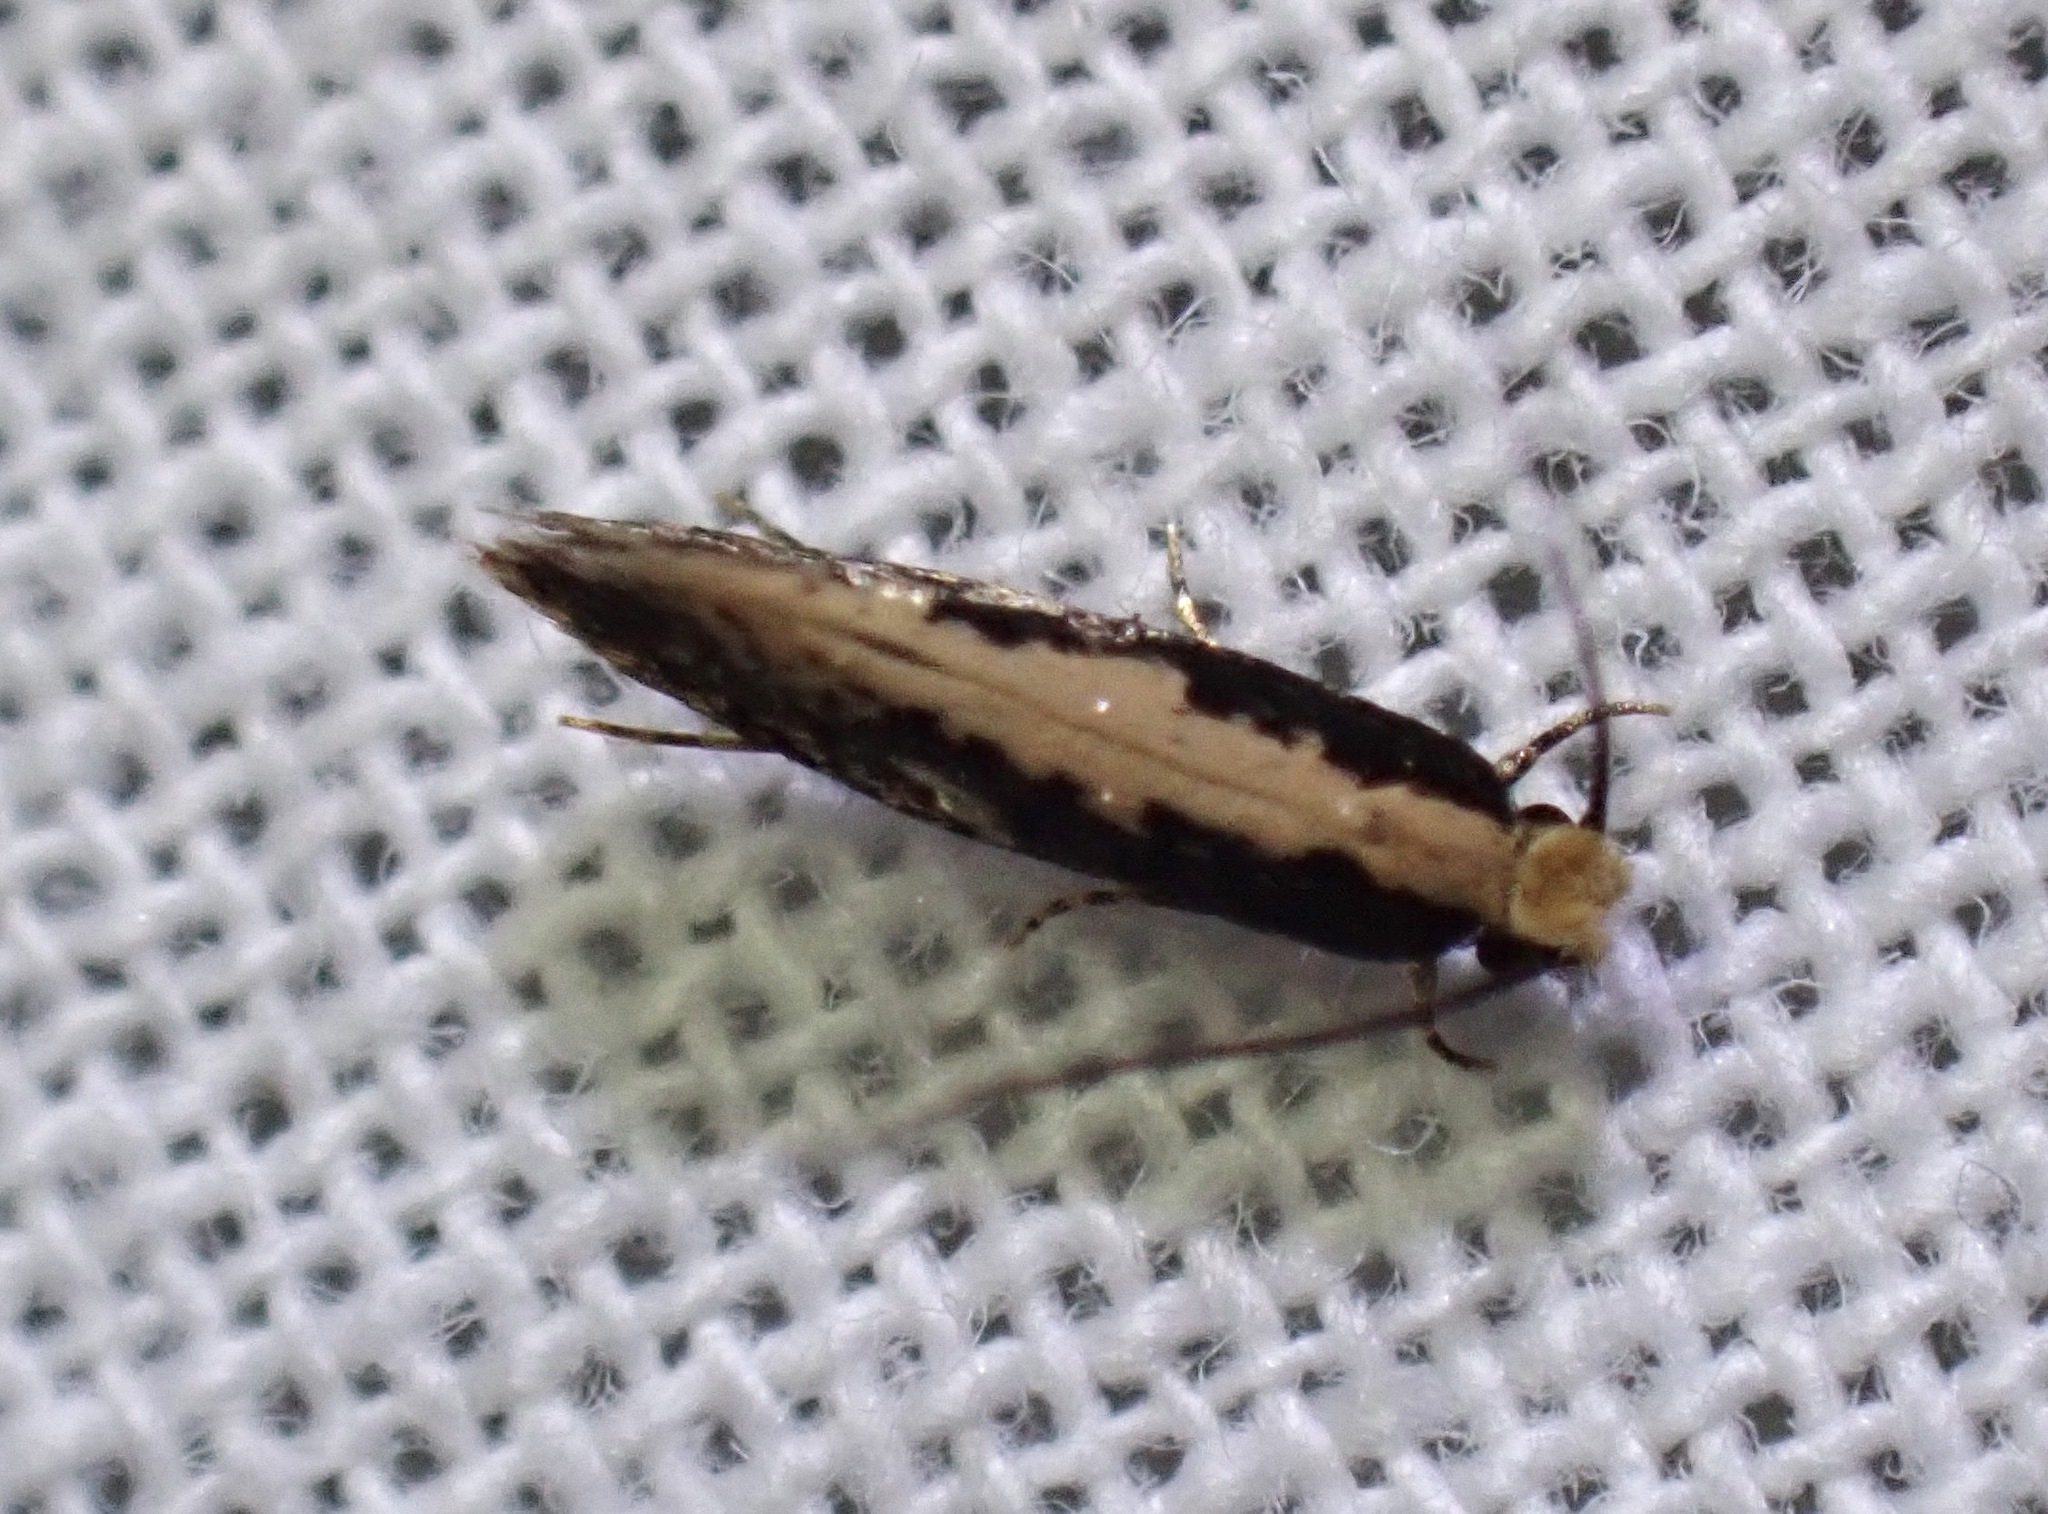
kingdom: Animalia
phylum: Arthropoda
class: Insecta
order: Lepidoptera
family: Tineidae
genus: Monopis
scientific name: Monopis crocicapitella
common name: Moth
